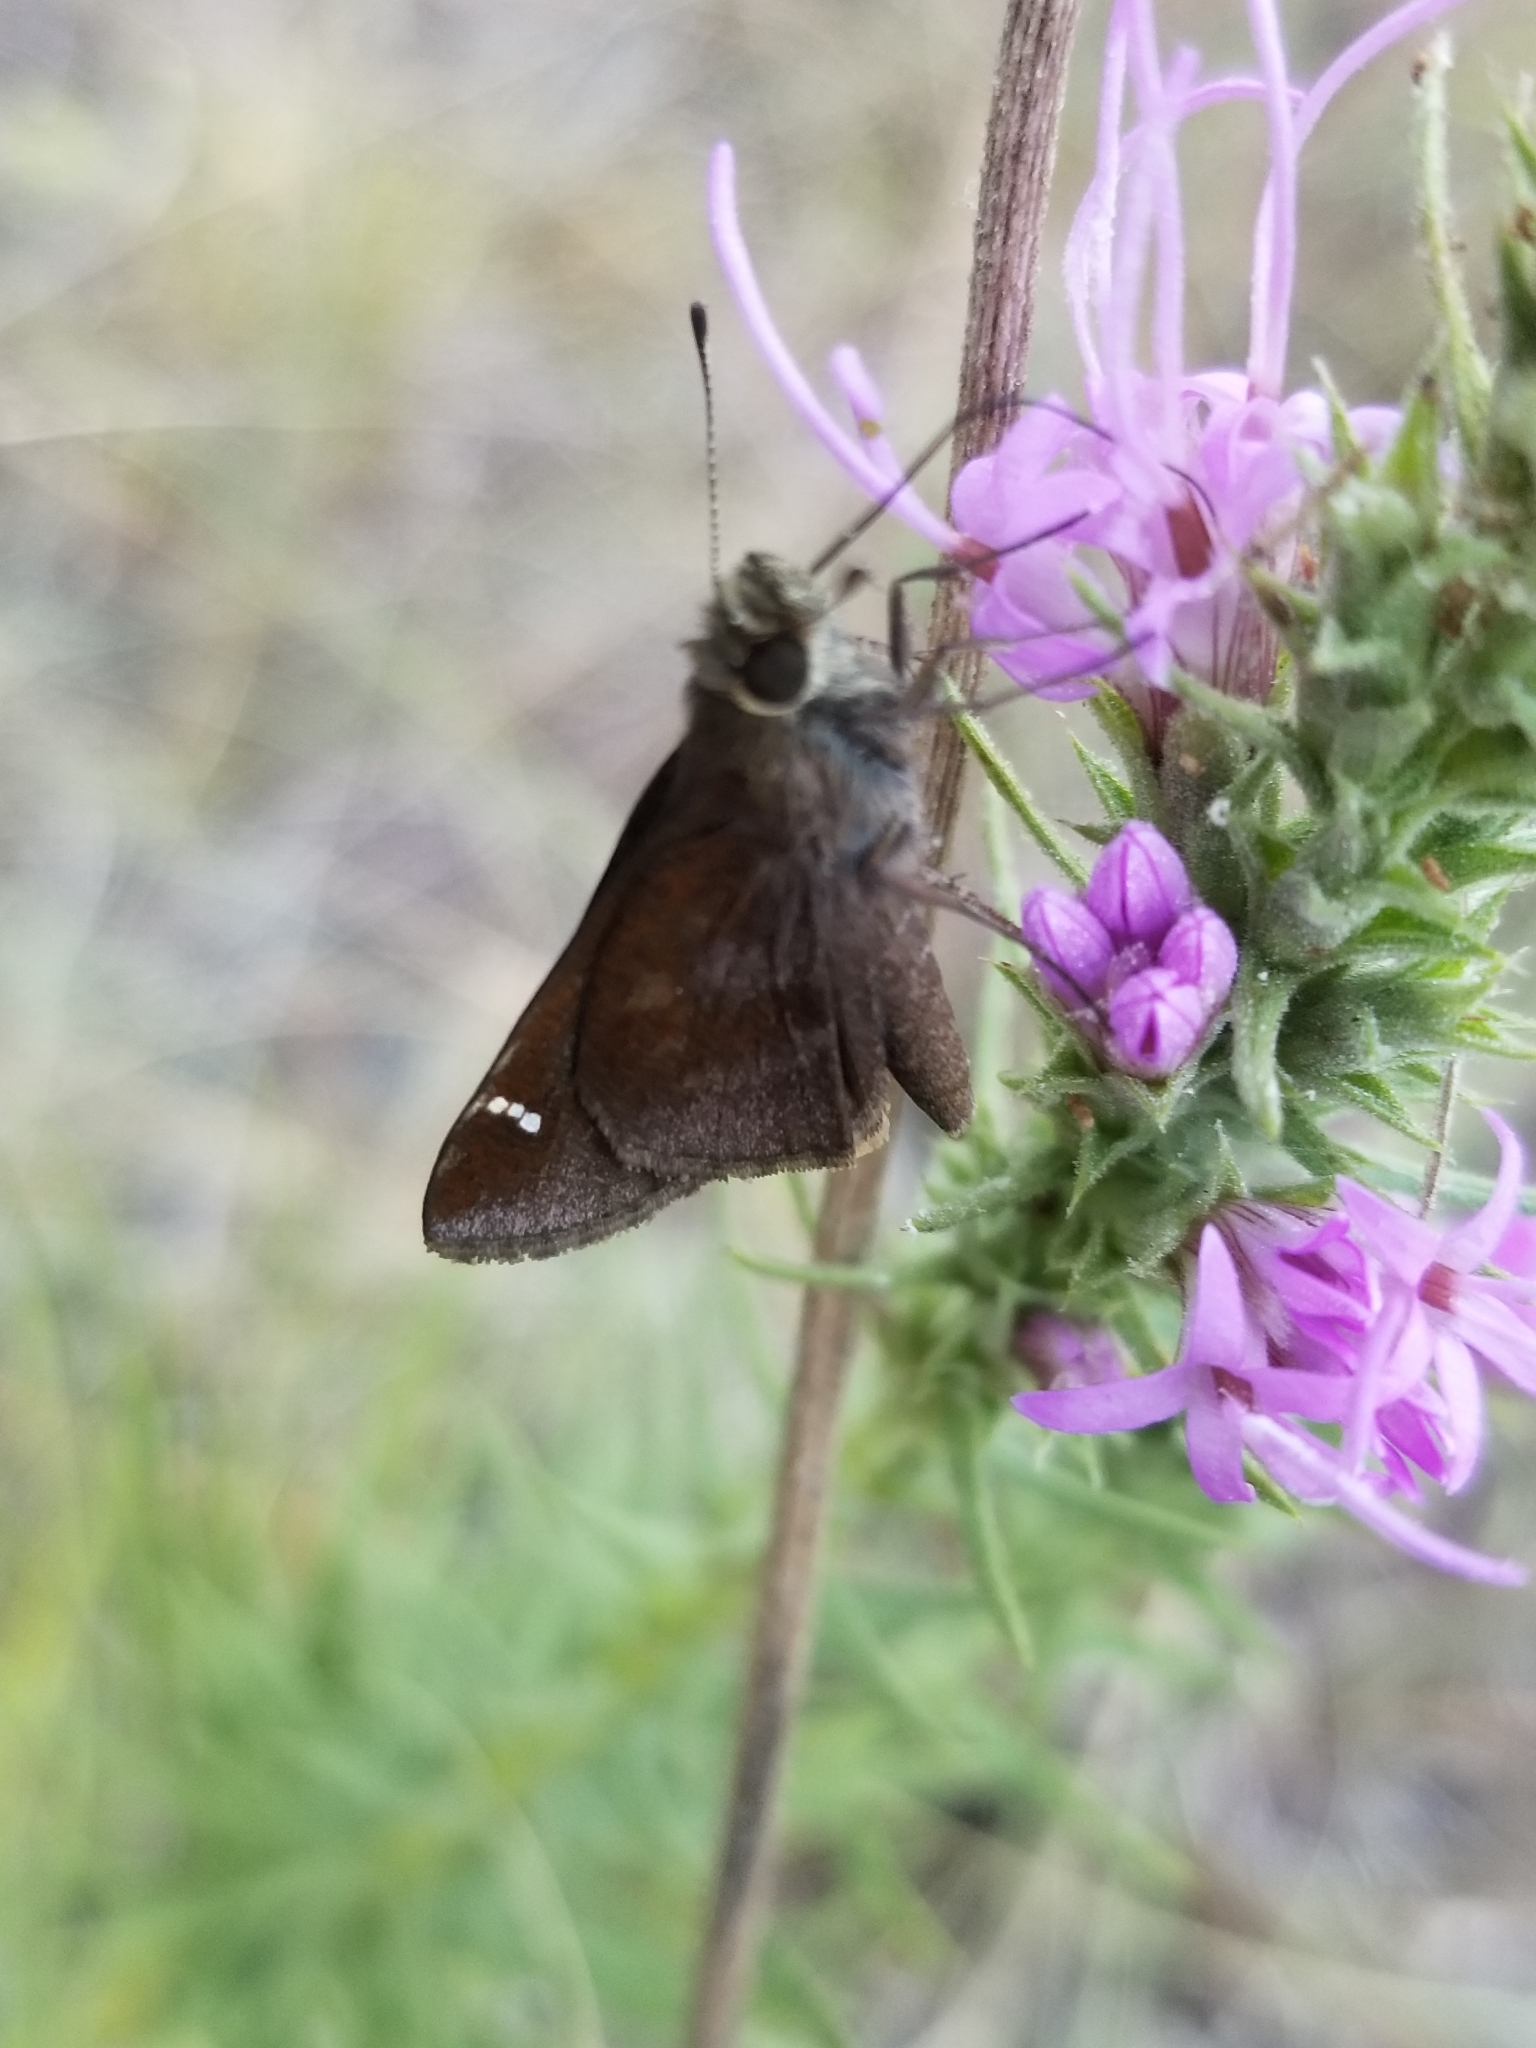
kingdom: Animalia
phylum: Arthropoda
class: Insecta
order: Lepidoptera
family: Hesperiidae
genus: Lerema
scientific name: Lerema accius
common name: Clouded skipper
